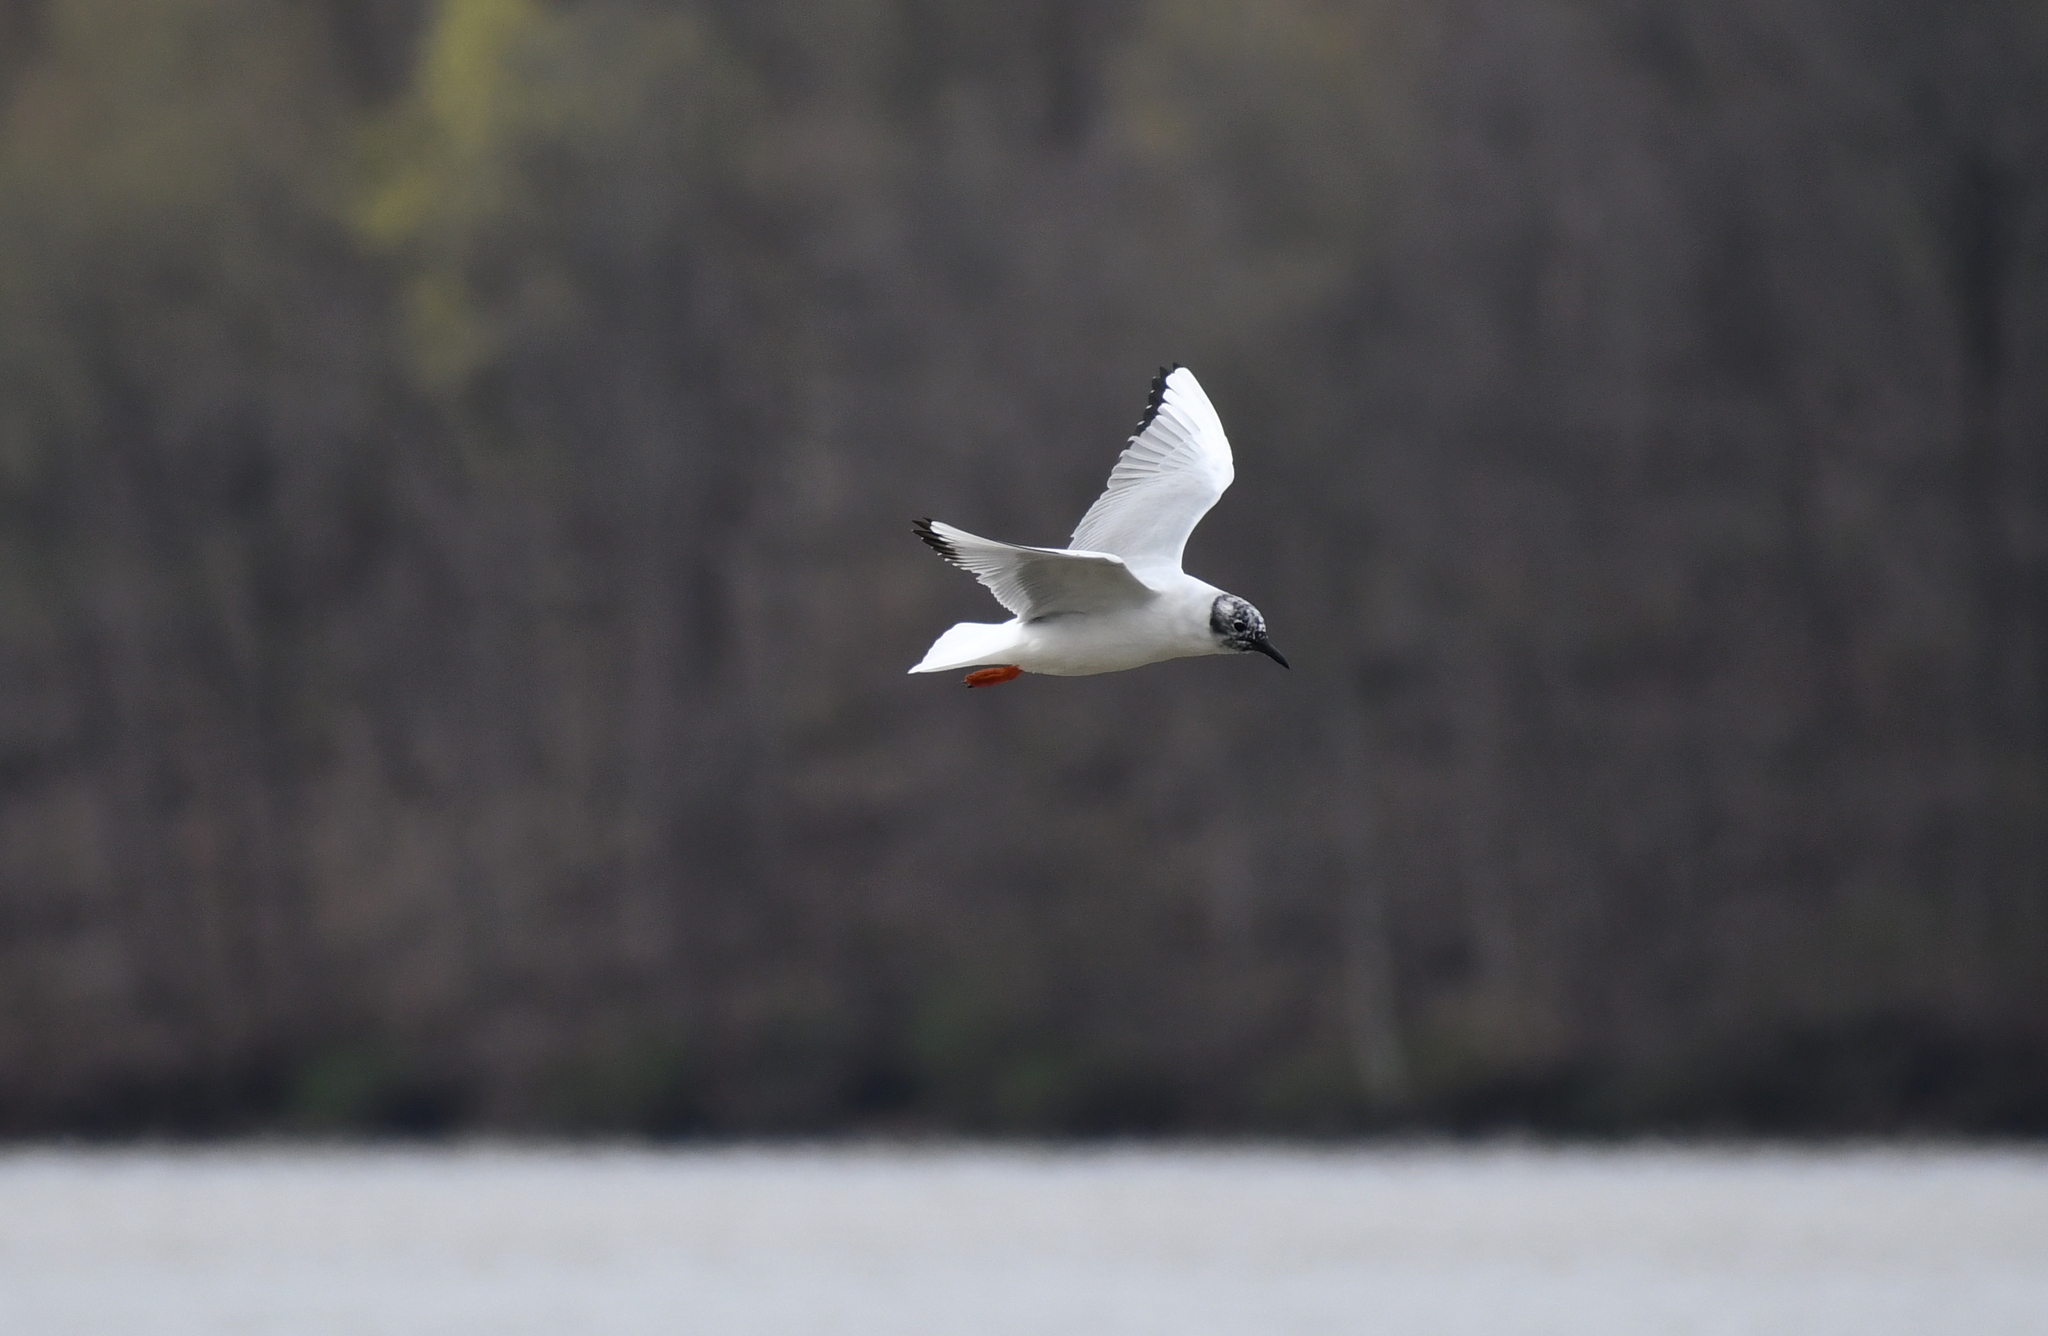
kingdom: Animalia
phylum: Chordata
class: Aves
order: Charadriiformes
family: Laridae
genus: Chroicocephalus
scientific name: Chroicocephalus philadelphia
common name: Bonaparte's gull
